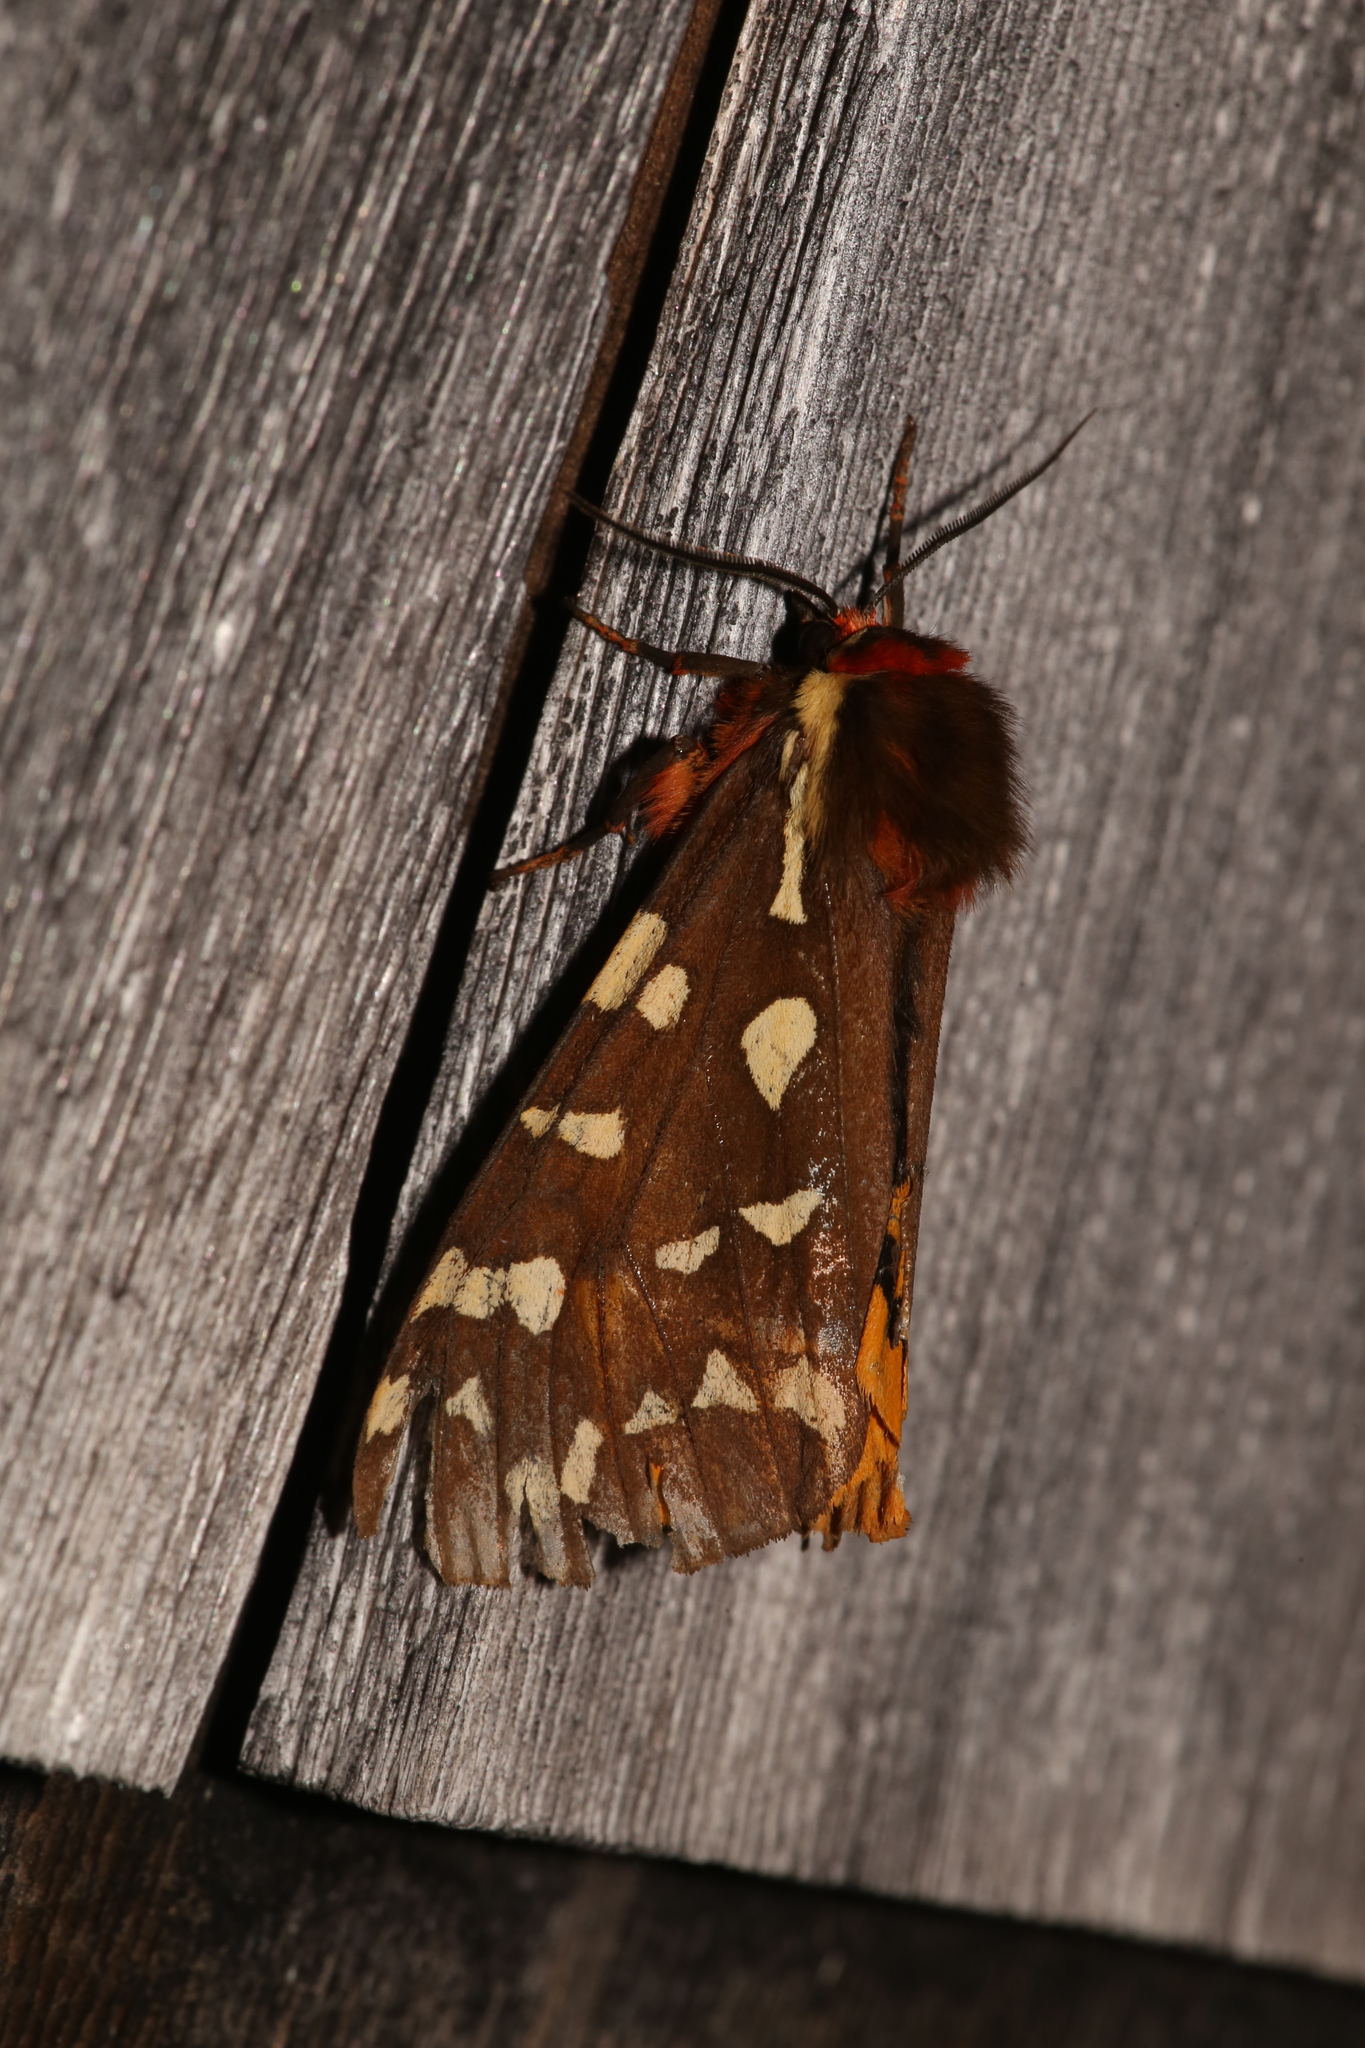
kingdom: Animalia
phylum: Arthropoda
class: Insecta
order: Lepidoptera
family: Erebidae
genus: Arctia
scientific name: Arctia parthenos
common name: St. lawrence tiger moth
